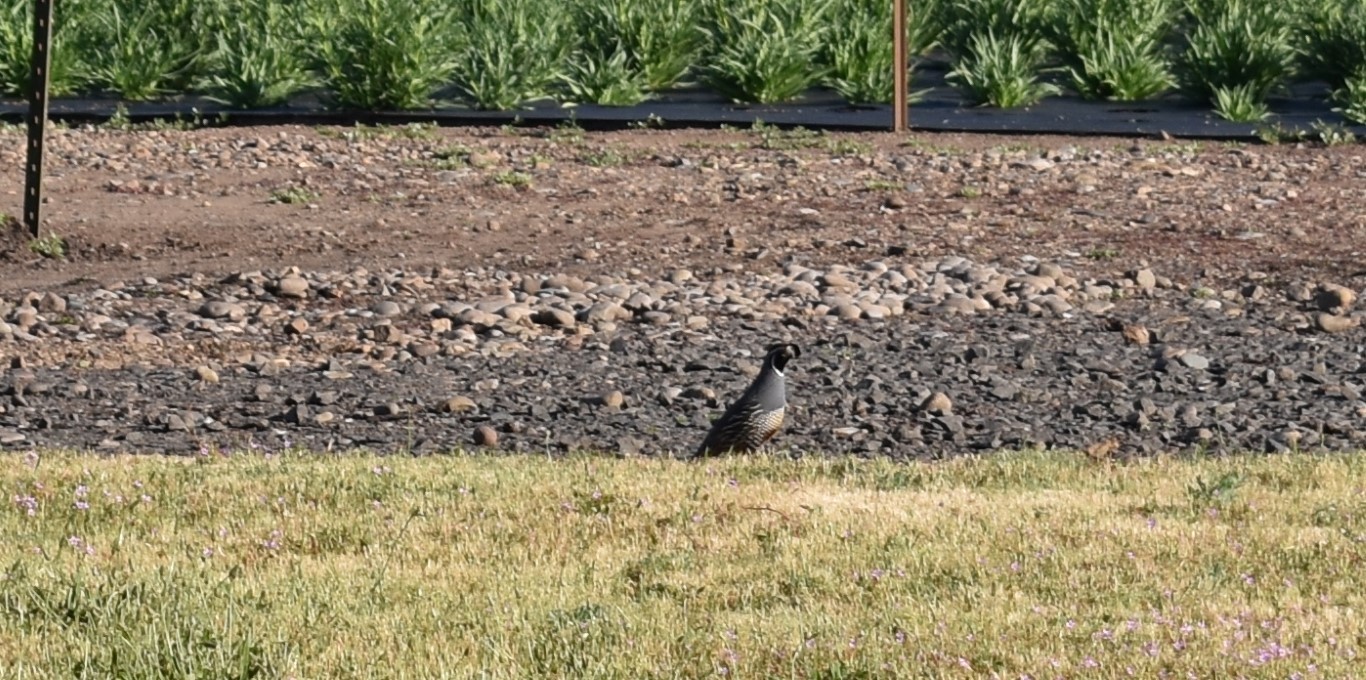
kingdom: Animalia
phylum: Chordata
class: Aves
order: Galliformes
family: Odontophoridae
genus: Callipepla
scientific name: Callipepla californica
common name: California quail
